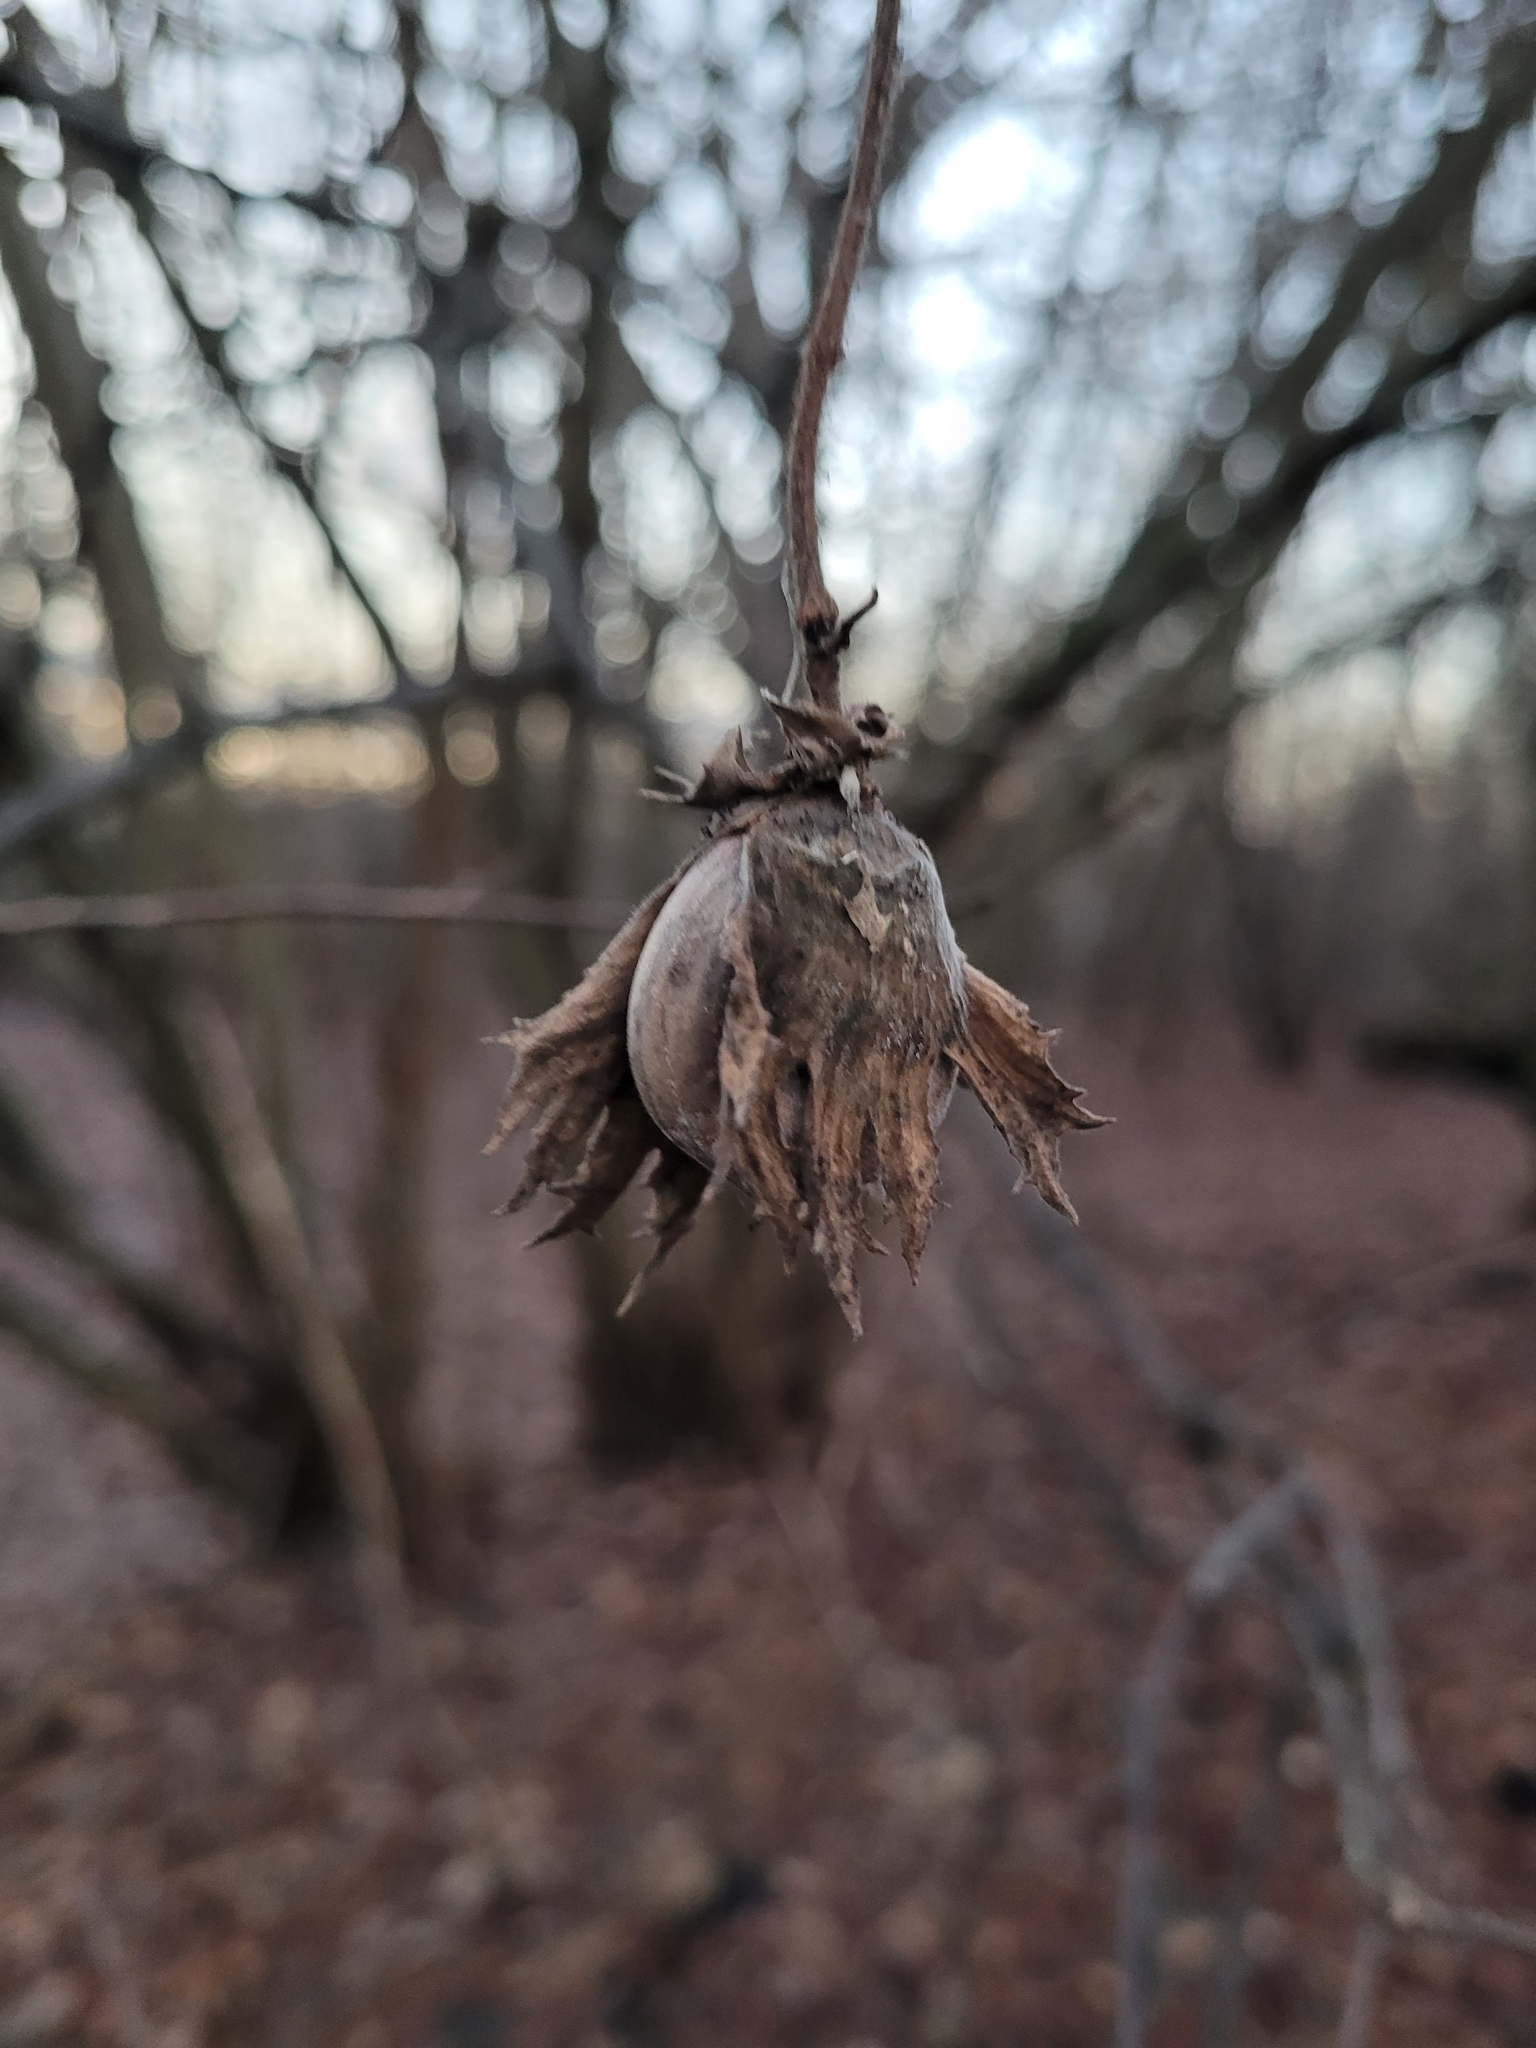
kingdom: Plantae
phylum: Tracheophyta
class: Magnoliopsida
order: Fagales
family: Betulaceae
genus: Corylus
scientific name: Corylus avellana
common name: European hazel
